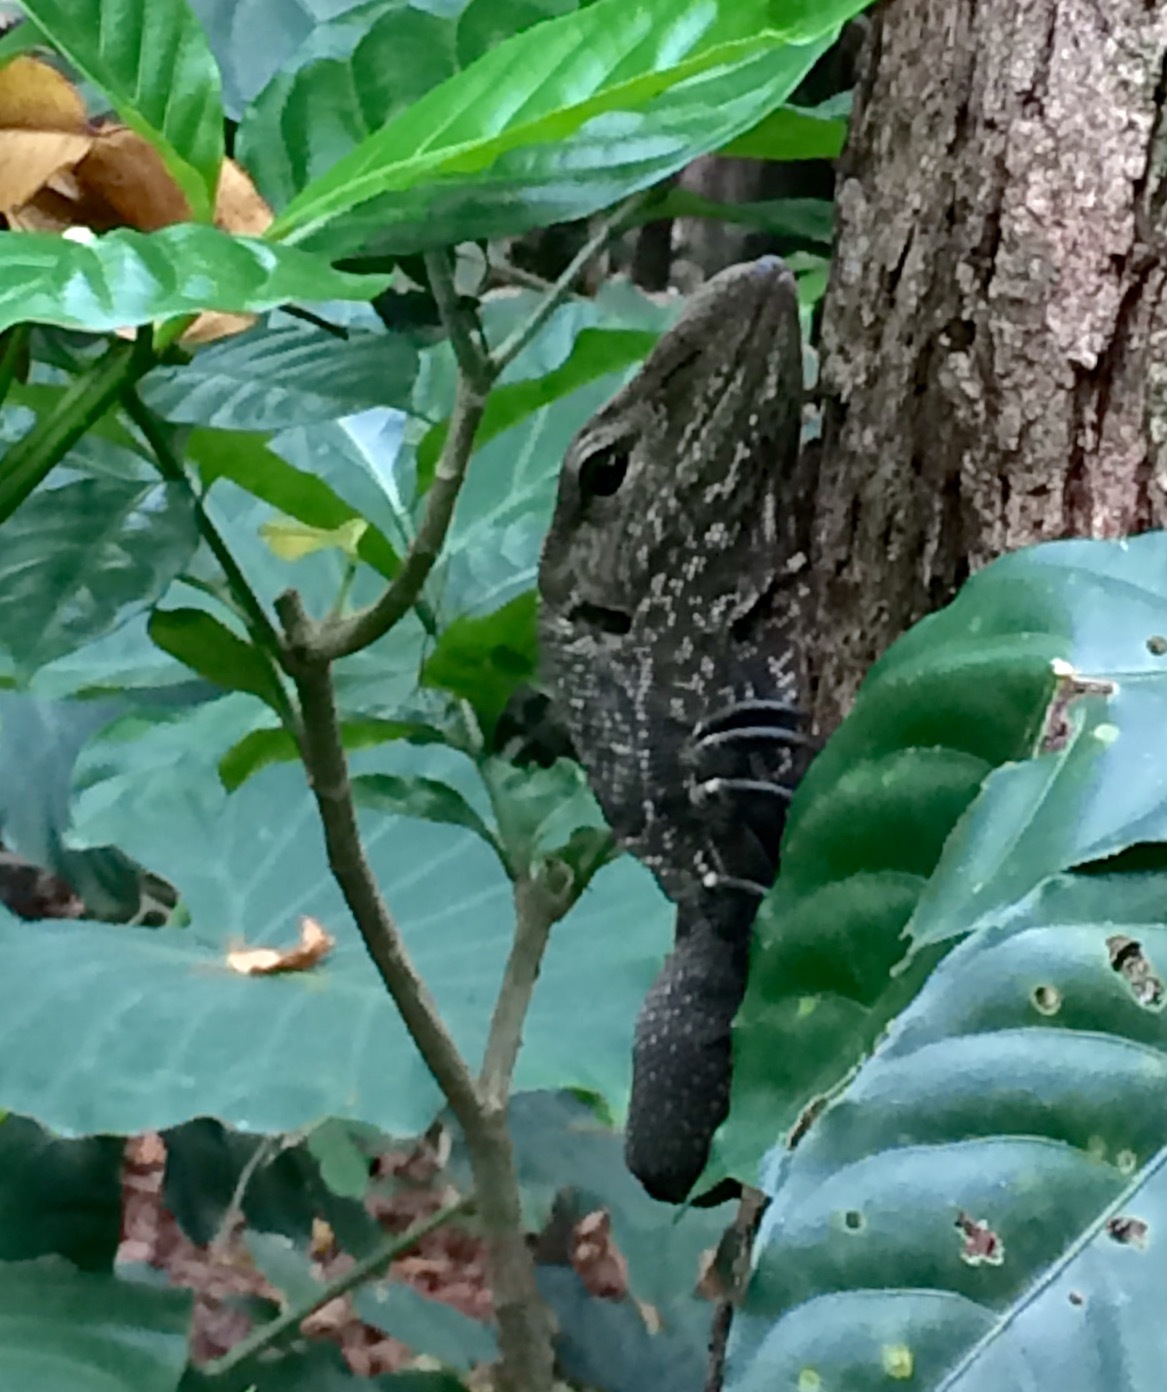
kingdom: Animalia
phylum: Chordata
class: Squamata
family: Varanidae
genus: Varanus
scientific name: Varanus nebulosus
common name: Clouded monitor
